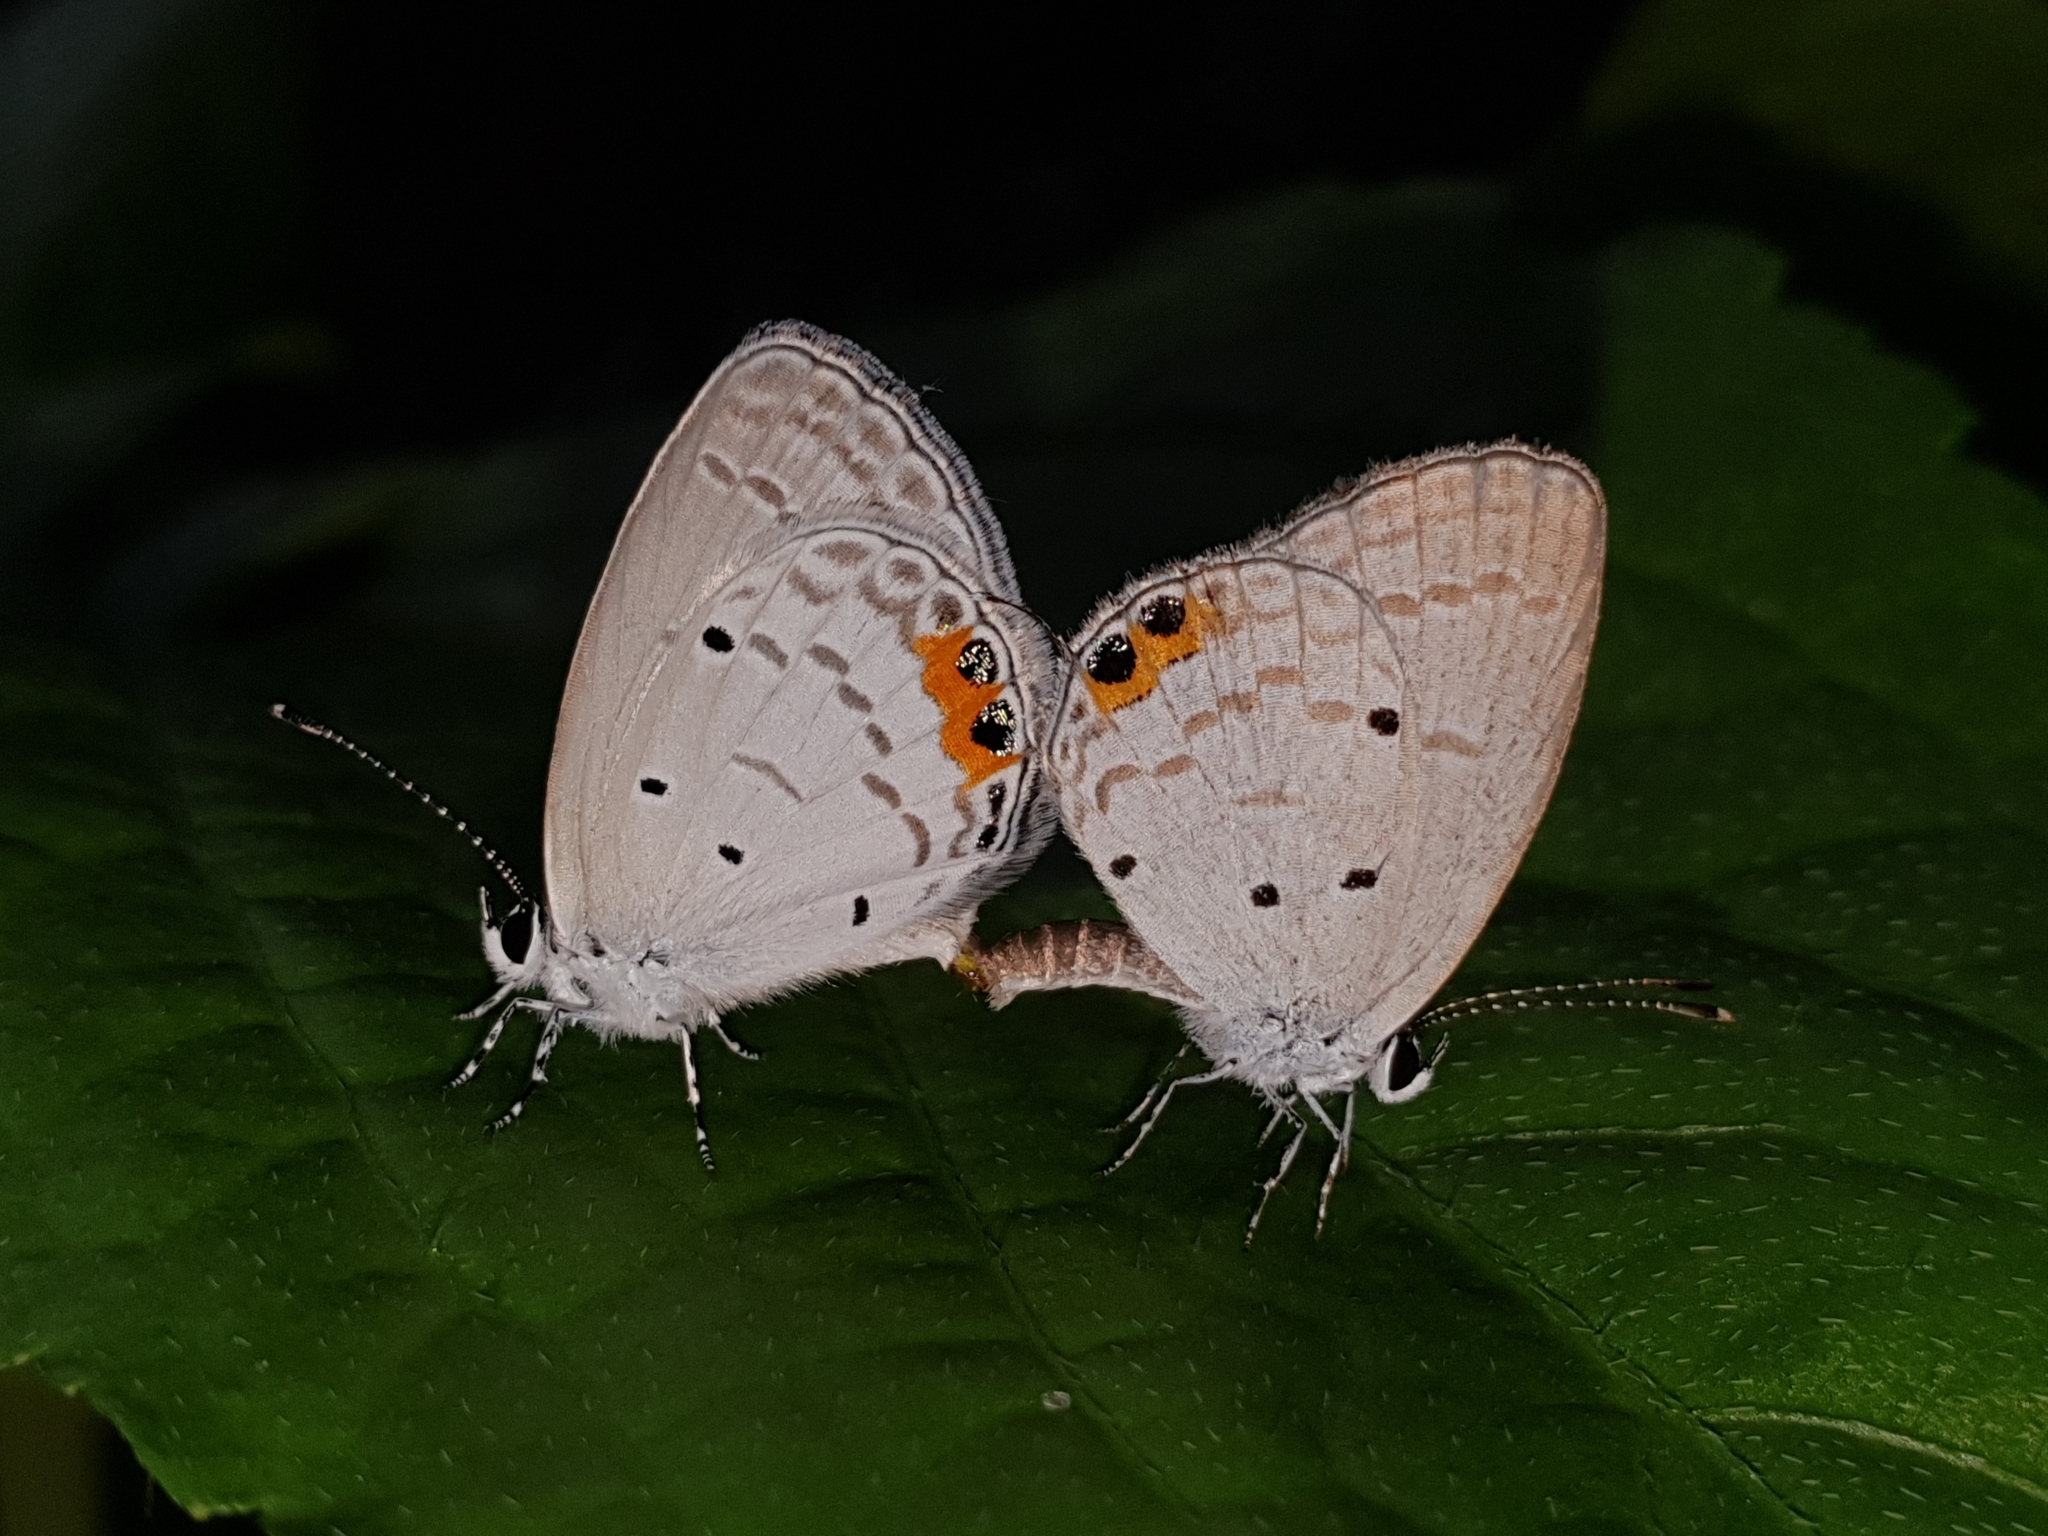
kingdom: Animalia
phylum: Arthropoda
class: Insecta
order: Lepidoptera
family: Lycaenidae
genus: Everes
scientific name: Everes lacturnus
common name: Orange-tipped pea-blue
